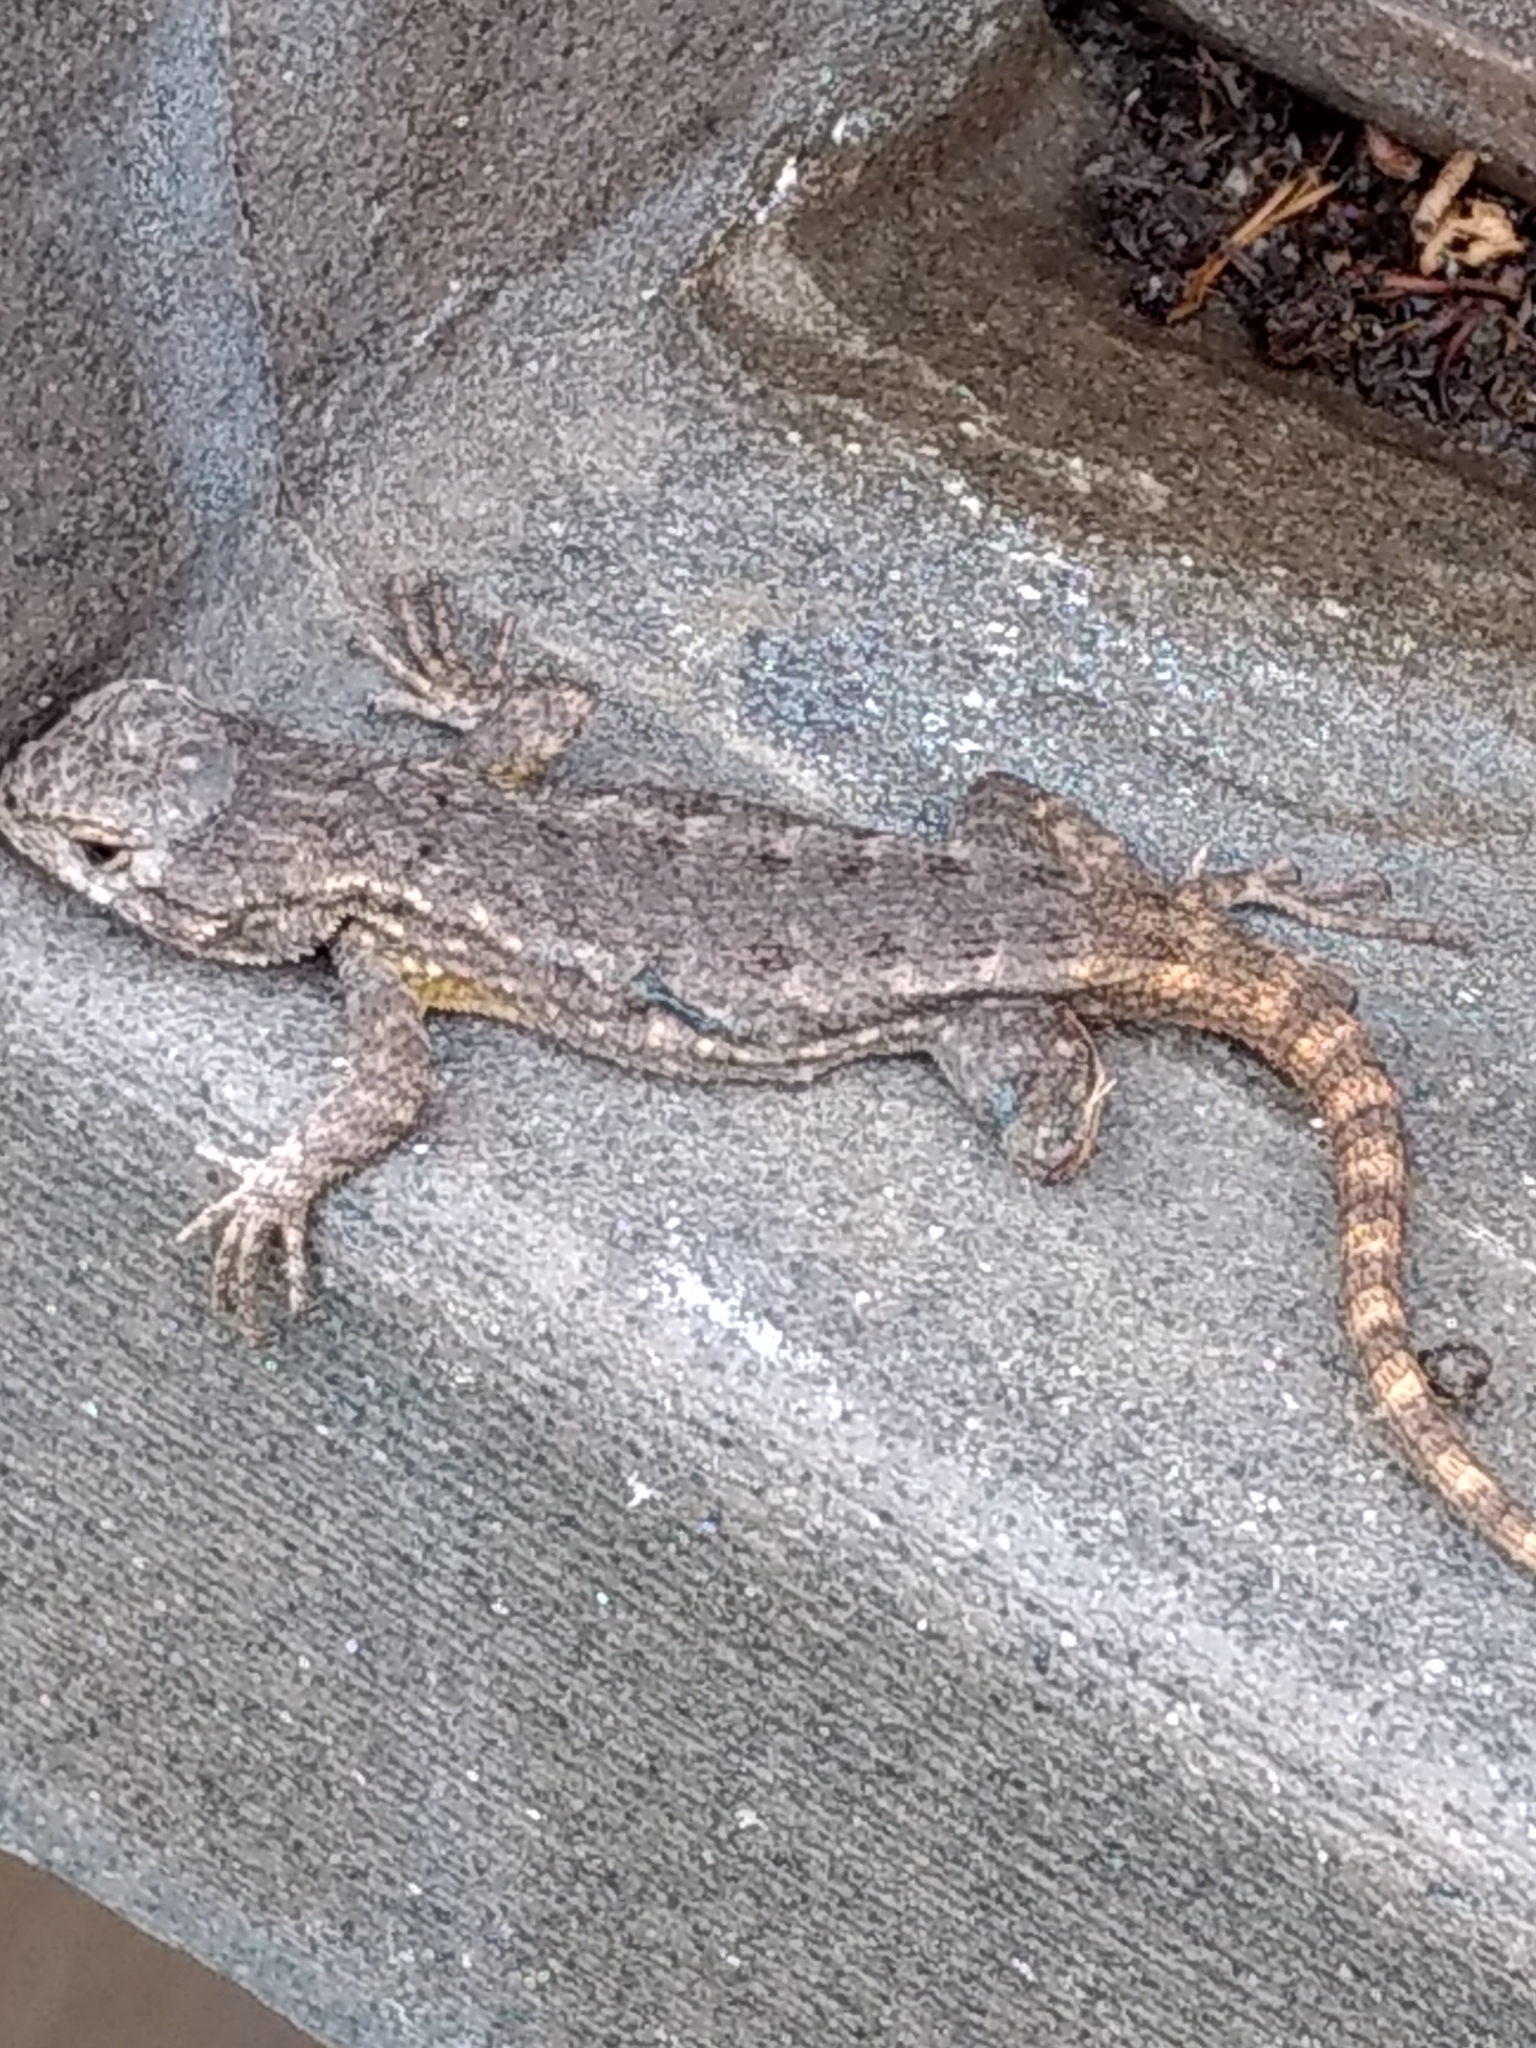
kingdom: Animalia
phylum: Chordata
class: Squamata
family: Phrynosomatidae
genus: Sceloporus
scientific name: Sceloporus occidentalis
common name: Western fence lizard
